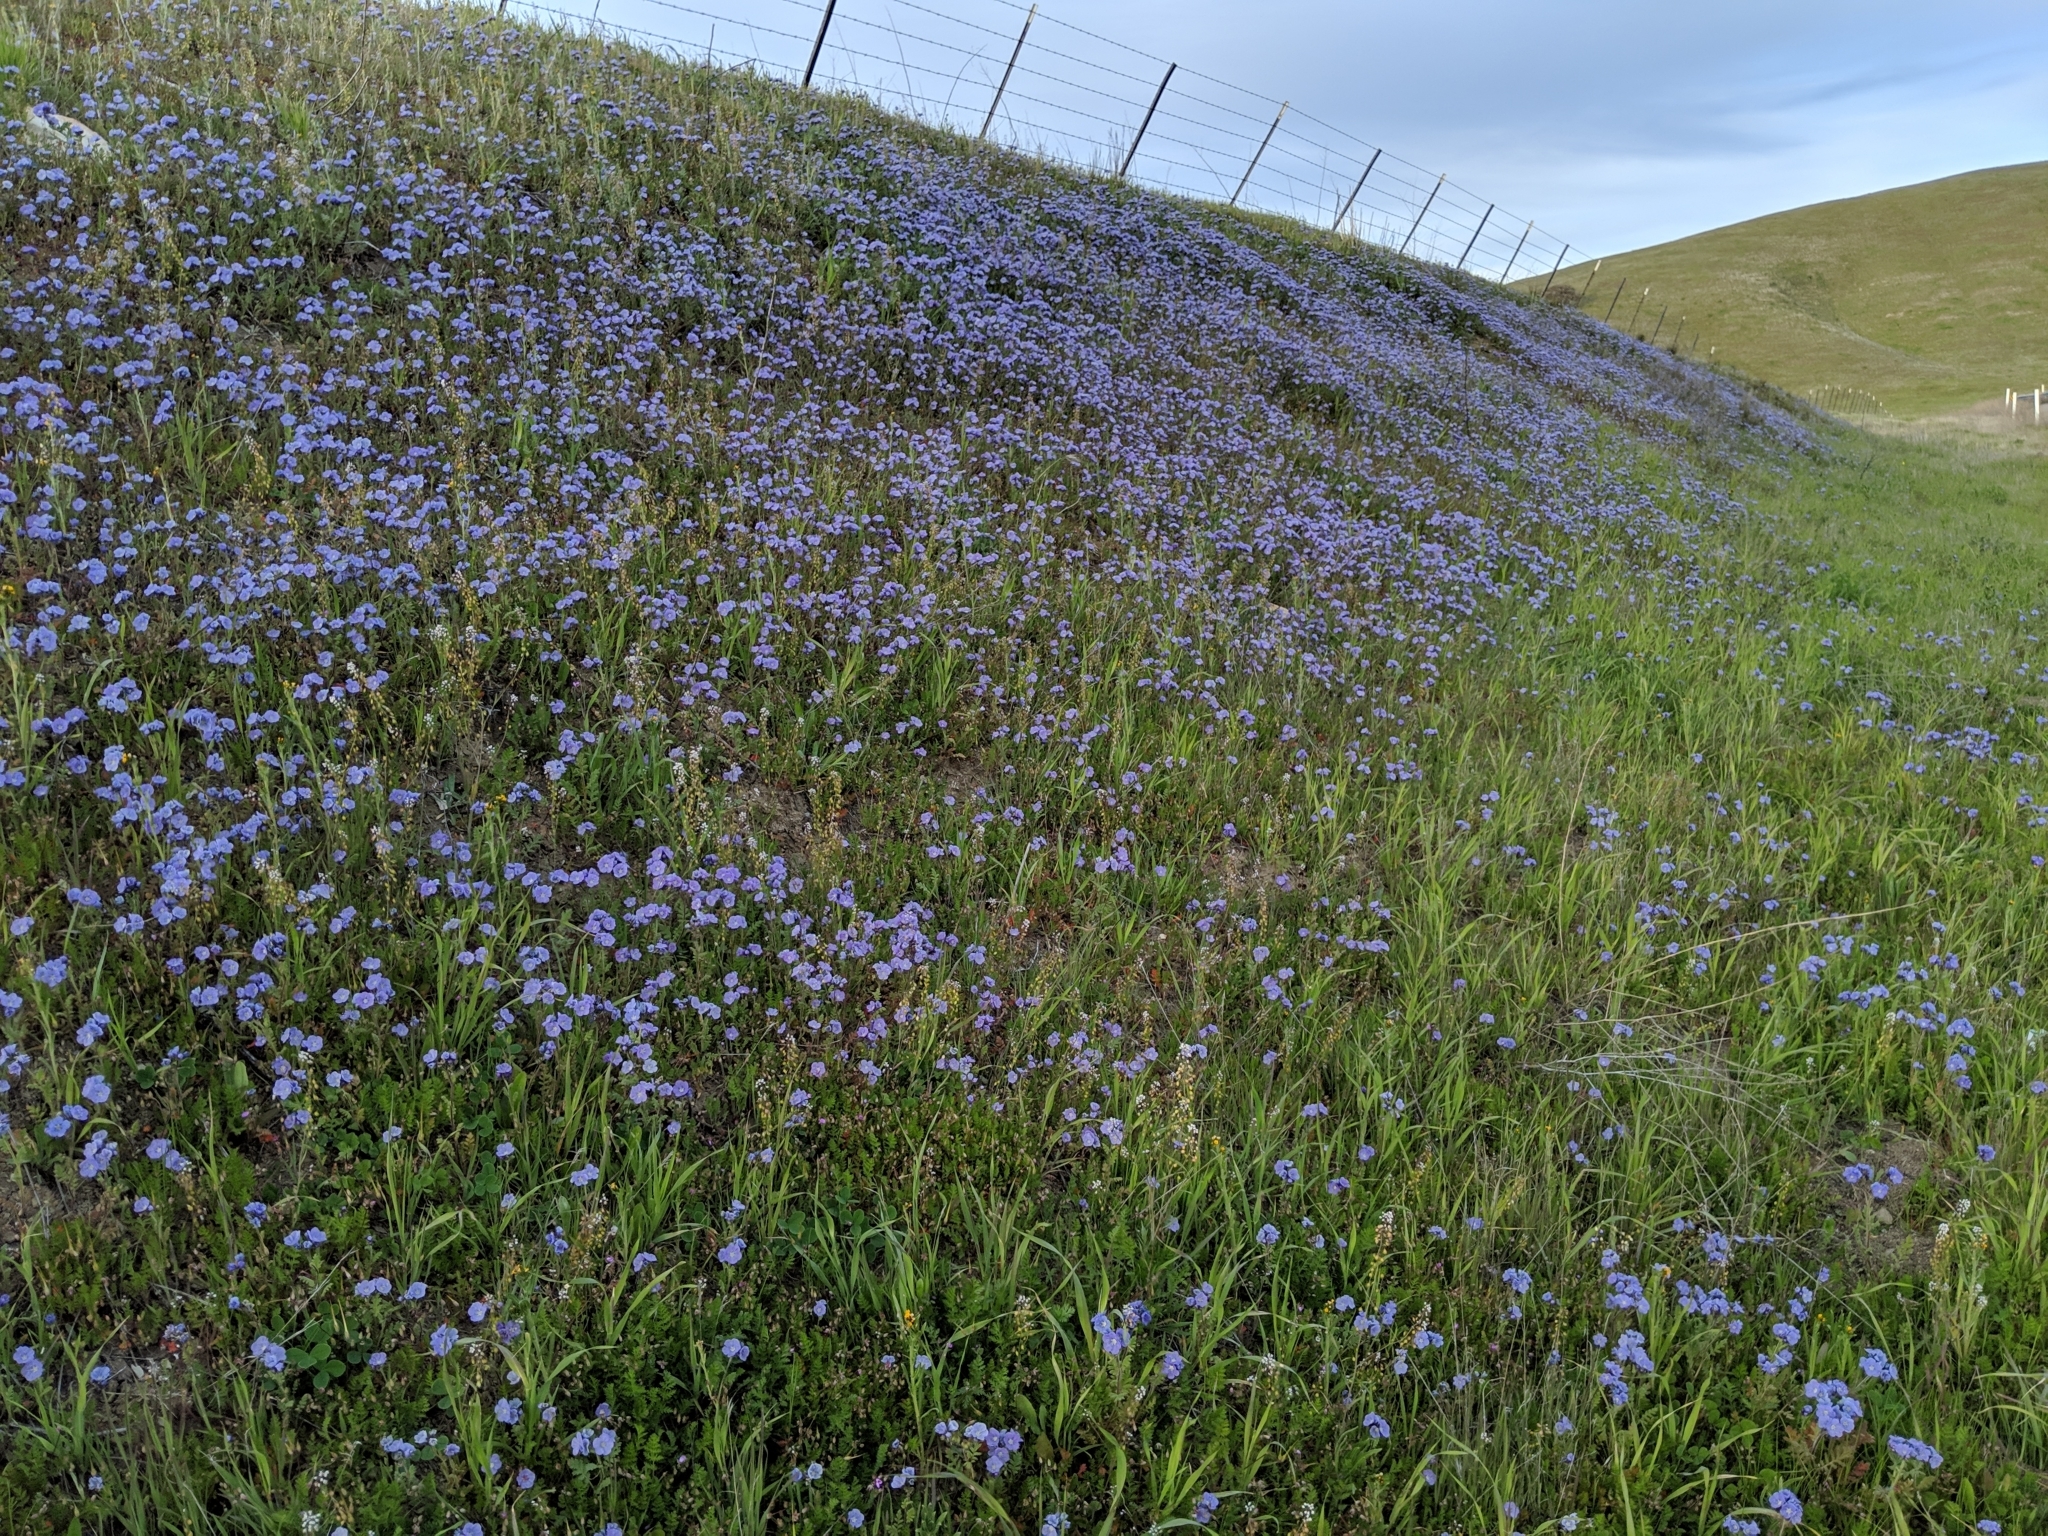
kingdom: Plantae
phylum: Tracheophyta
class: Magnoliopsida
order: Boraginales
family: Hydrophyllaceae
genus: Phacelia
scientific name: Phacelia ciliata
